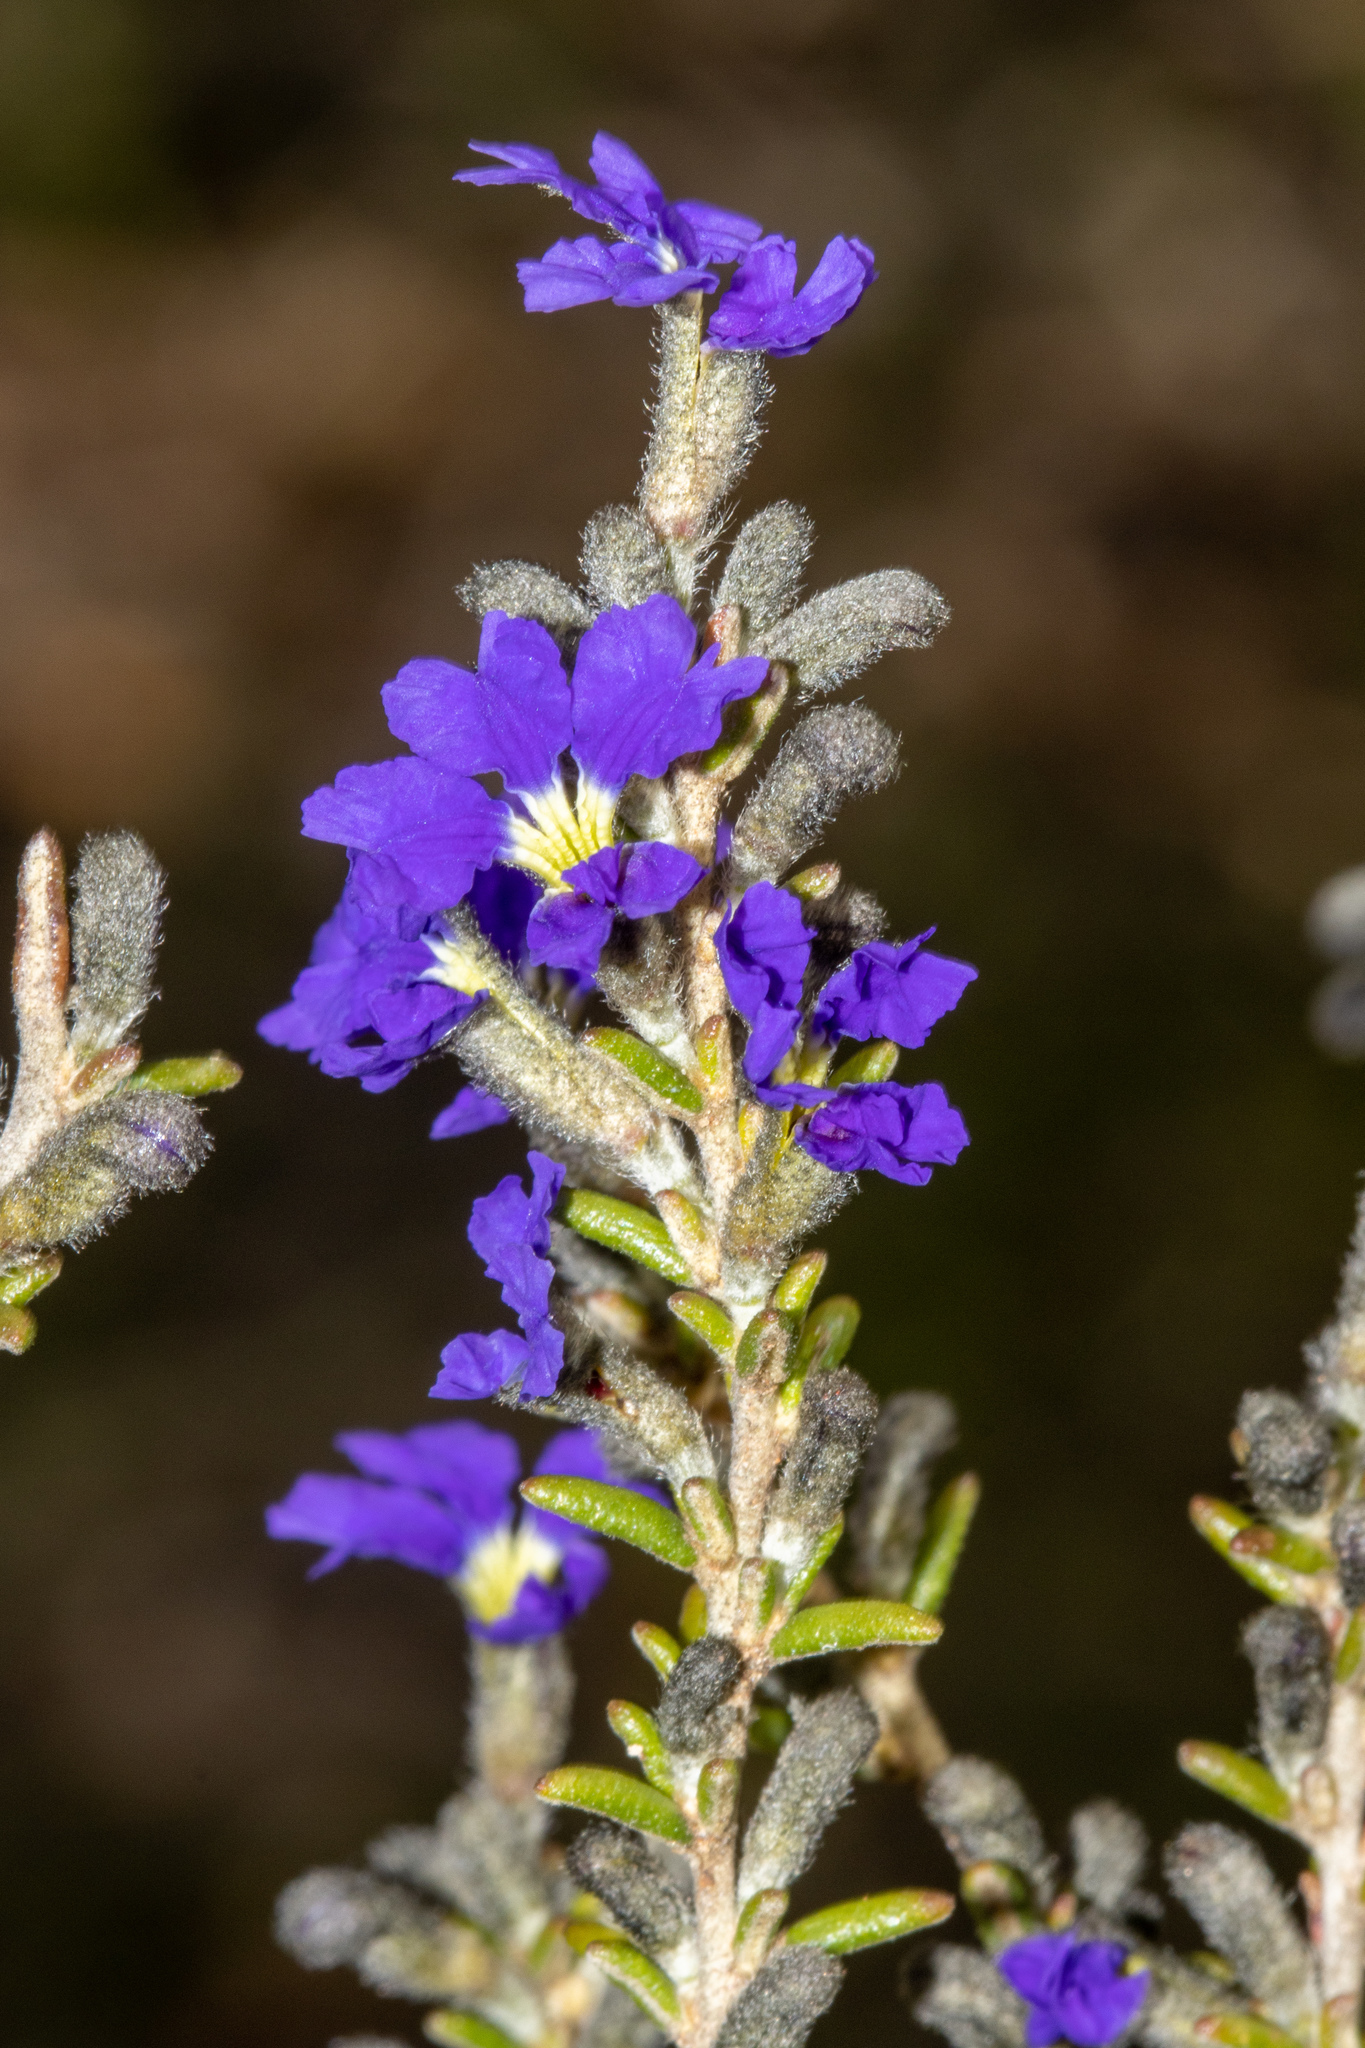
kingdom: Plantae
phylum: Tracheophyta
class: Magnoliopsida
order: Asterales
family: Goodeniaceae
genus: Dampiera
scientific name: Dampiera rosmarinifolia
